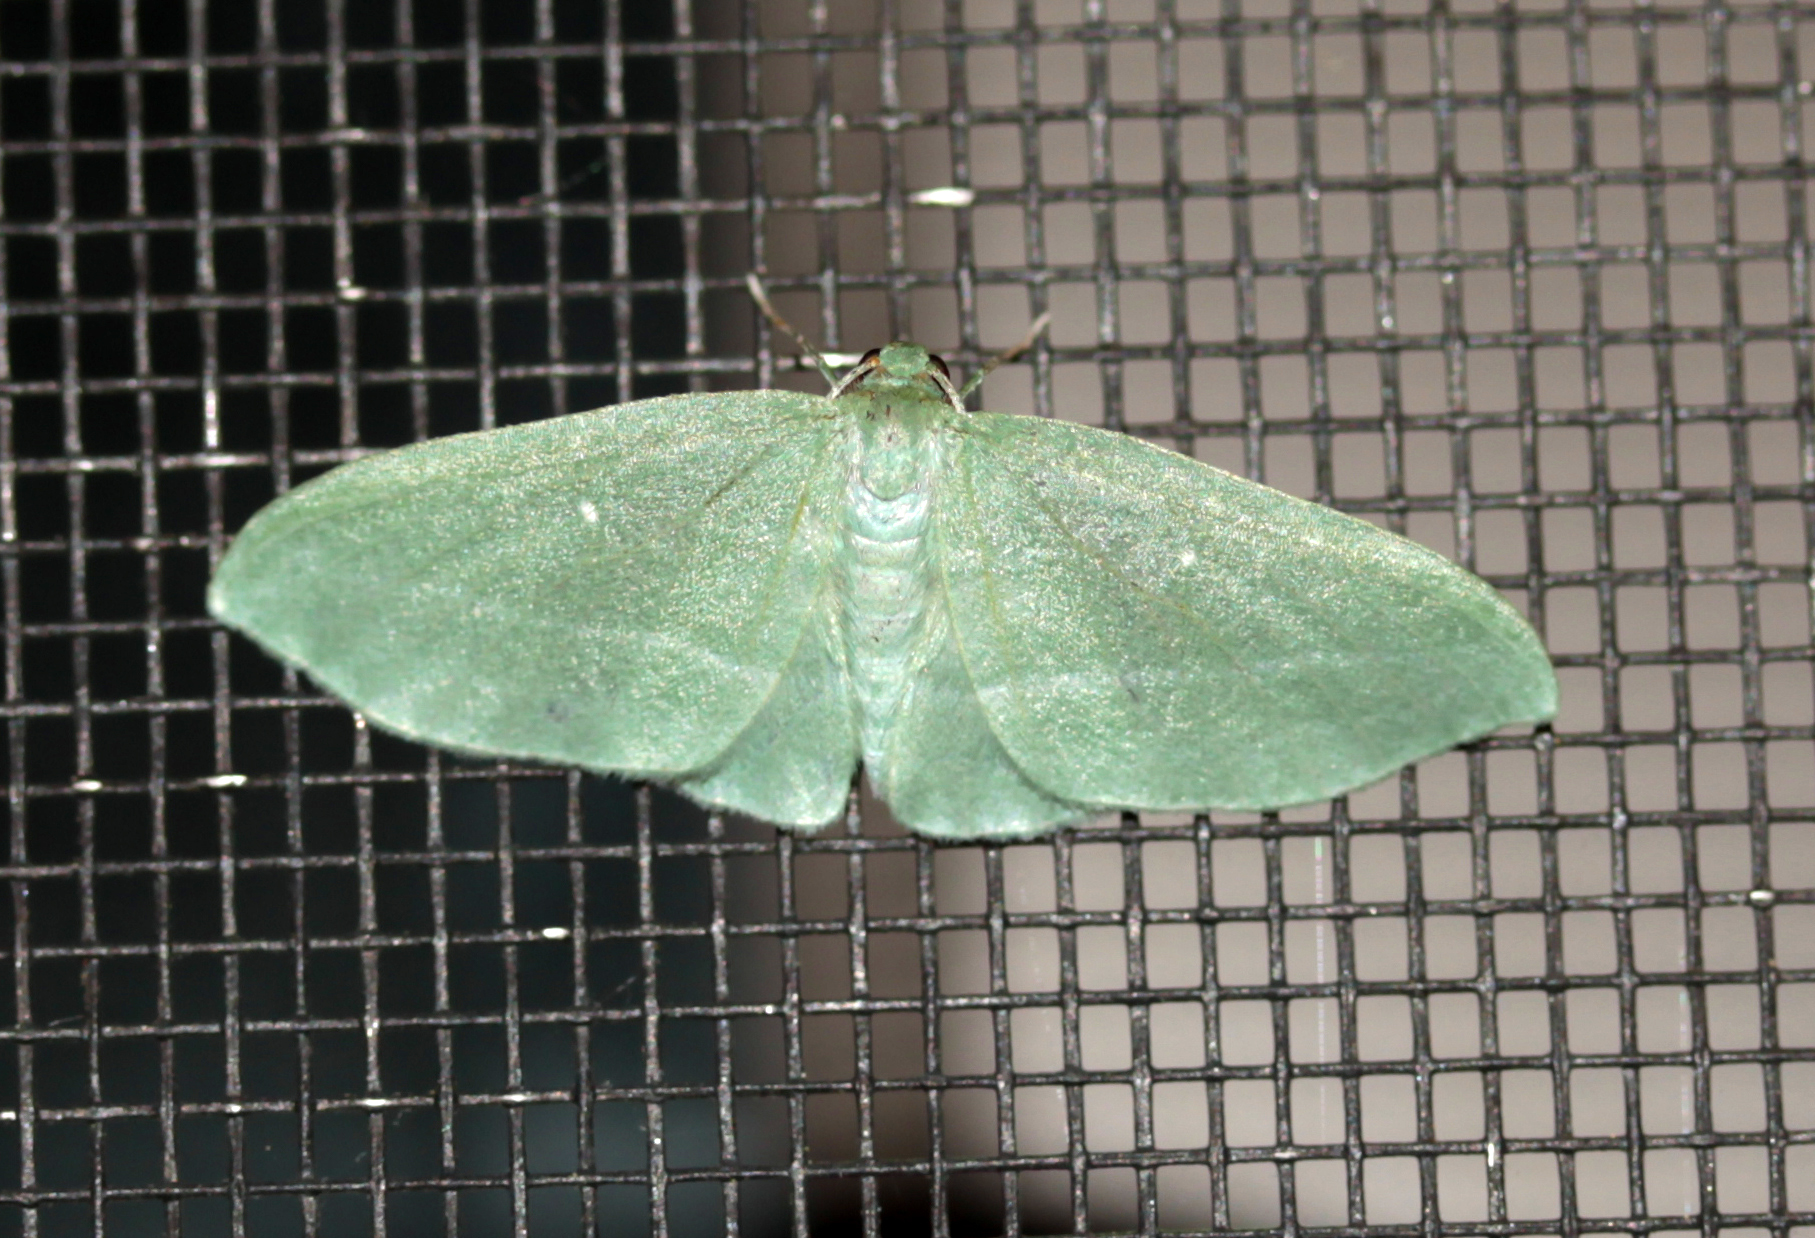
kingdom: Animalia
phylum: Arthropoda
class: Insecta
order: Lepidoptera
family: Geometridae
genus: Dyspteris
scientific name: Dyspteris abortivaria
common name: Bad-wing
